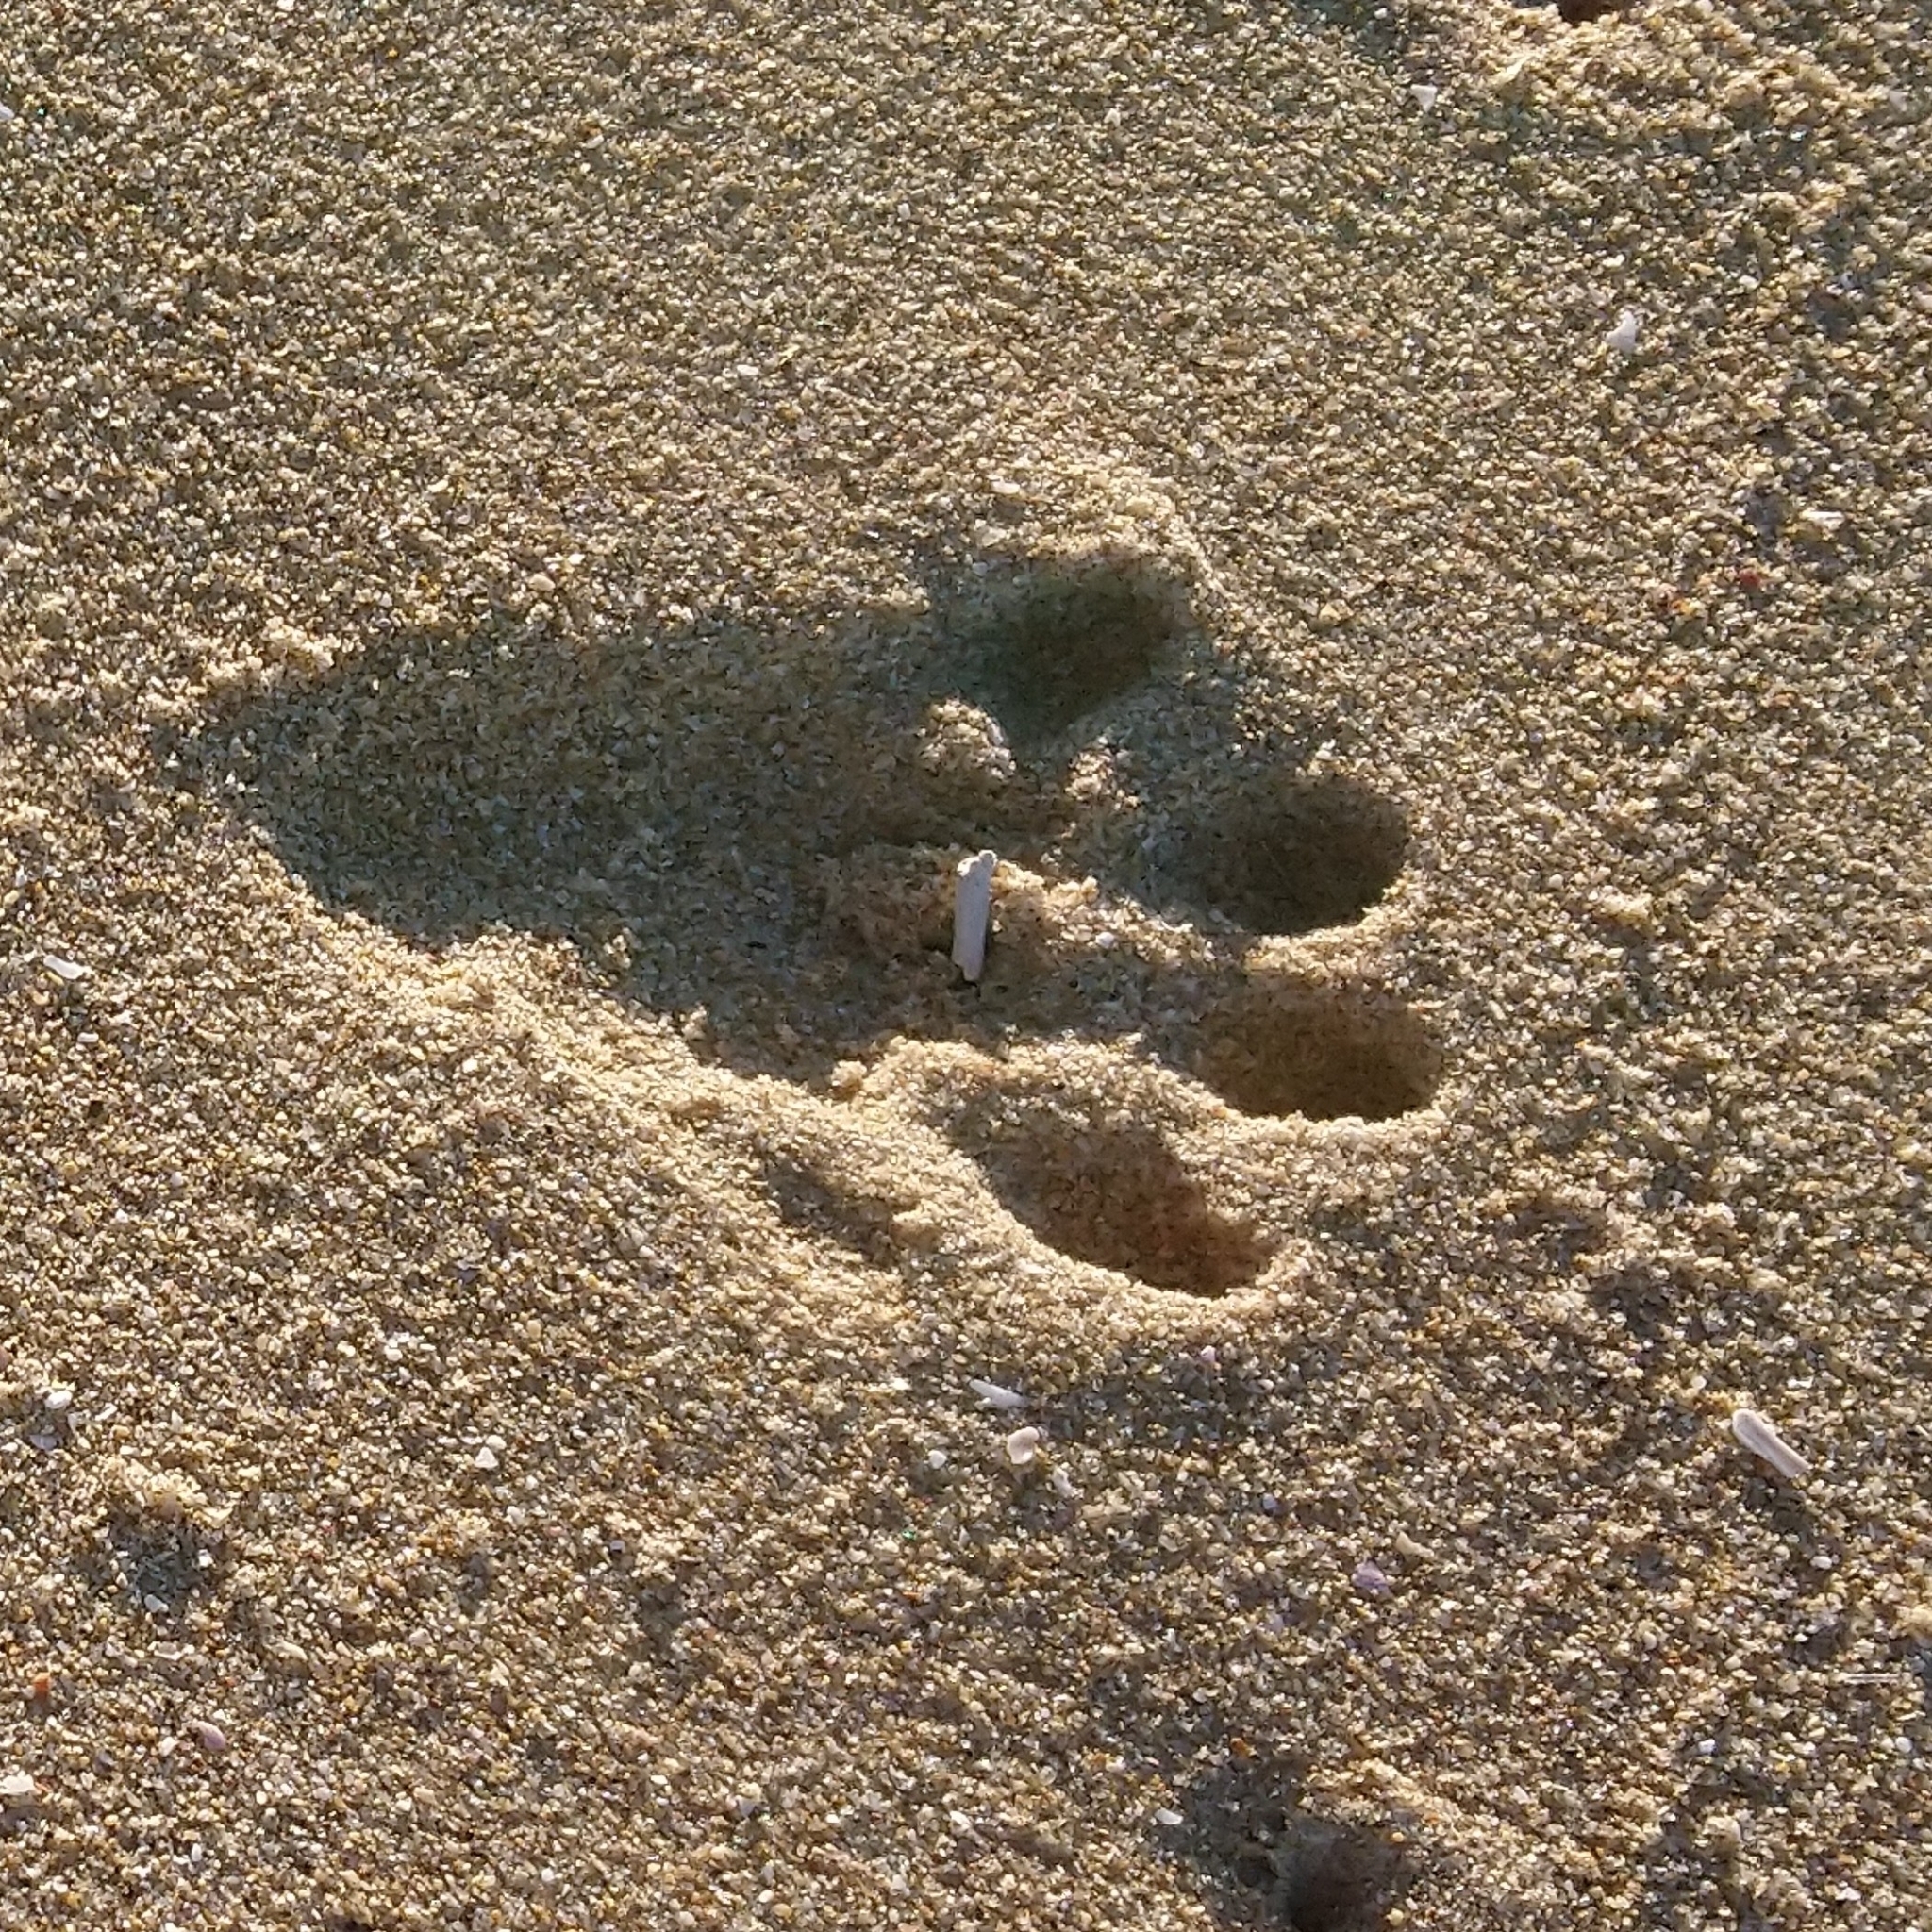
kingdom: Animalia
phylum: Chordata
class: Mammalia
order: Carnivora
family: Mustelidae
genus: Aonyx
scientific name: Aonyx capensis
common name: African clawless otter
